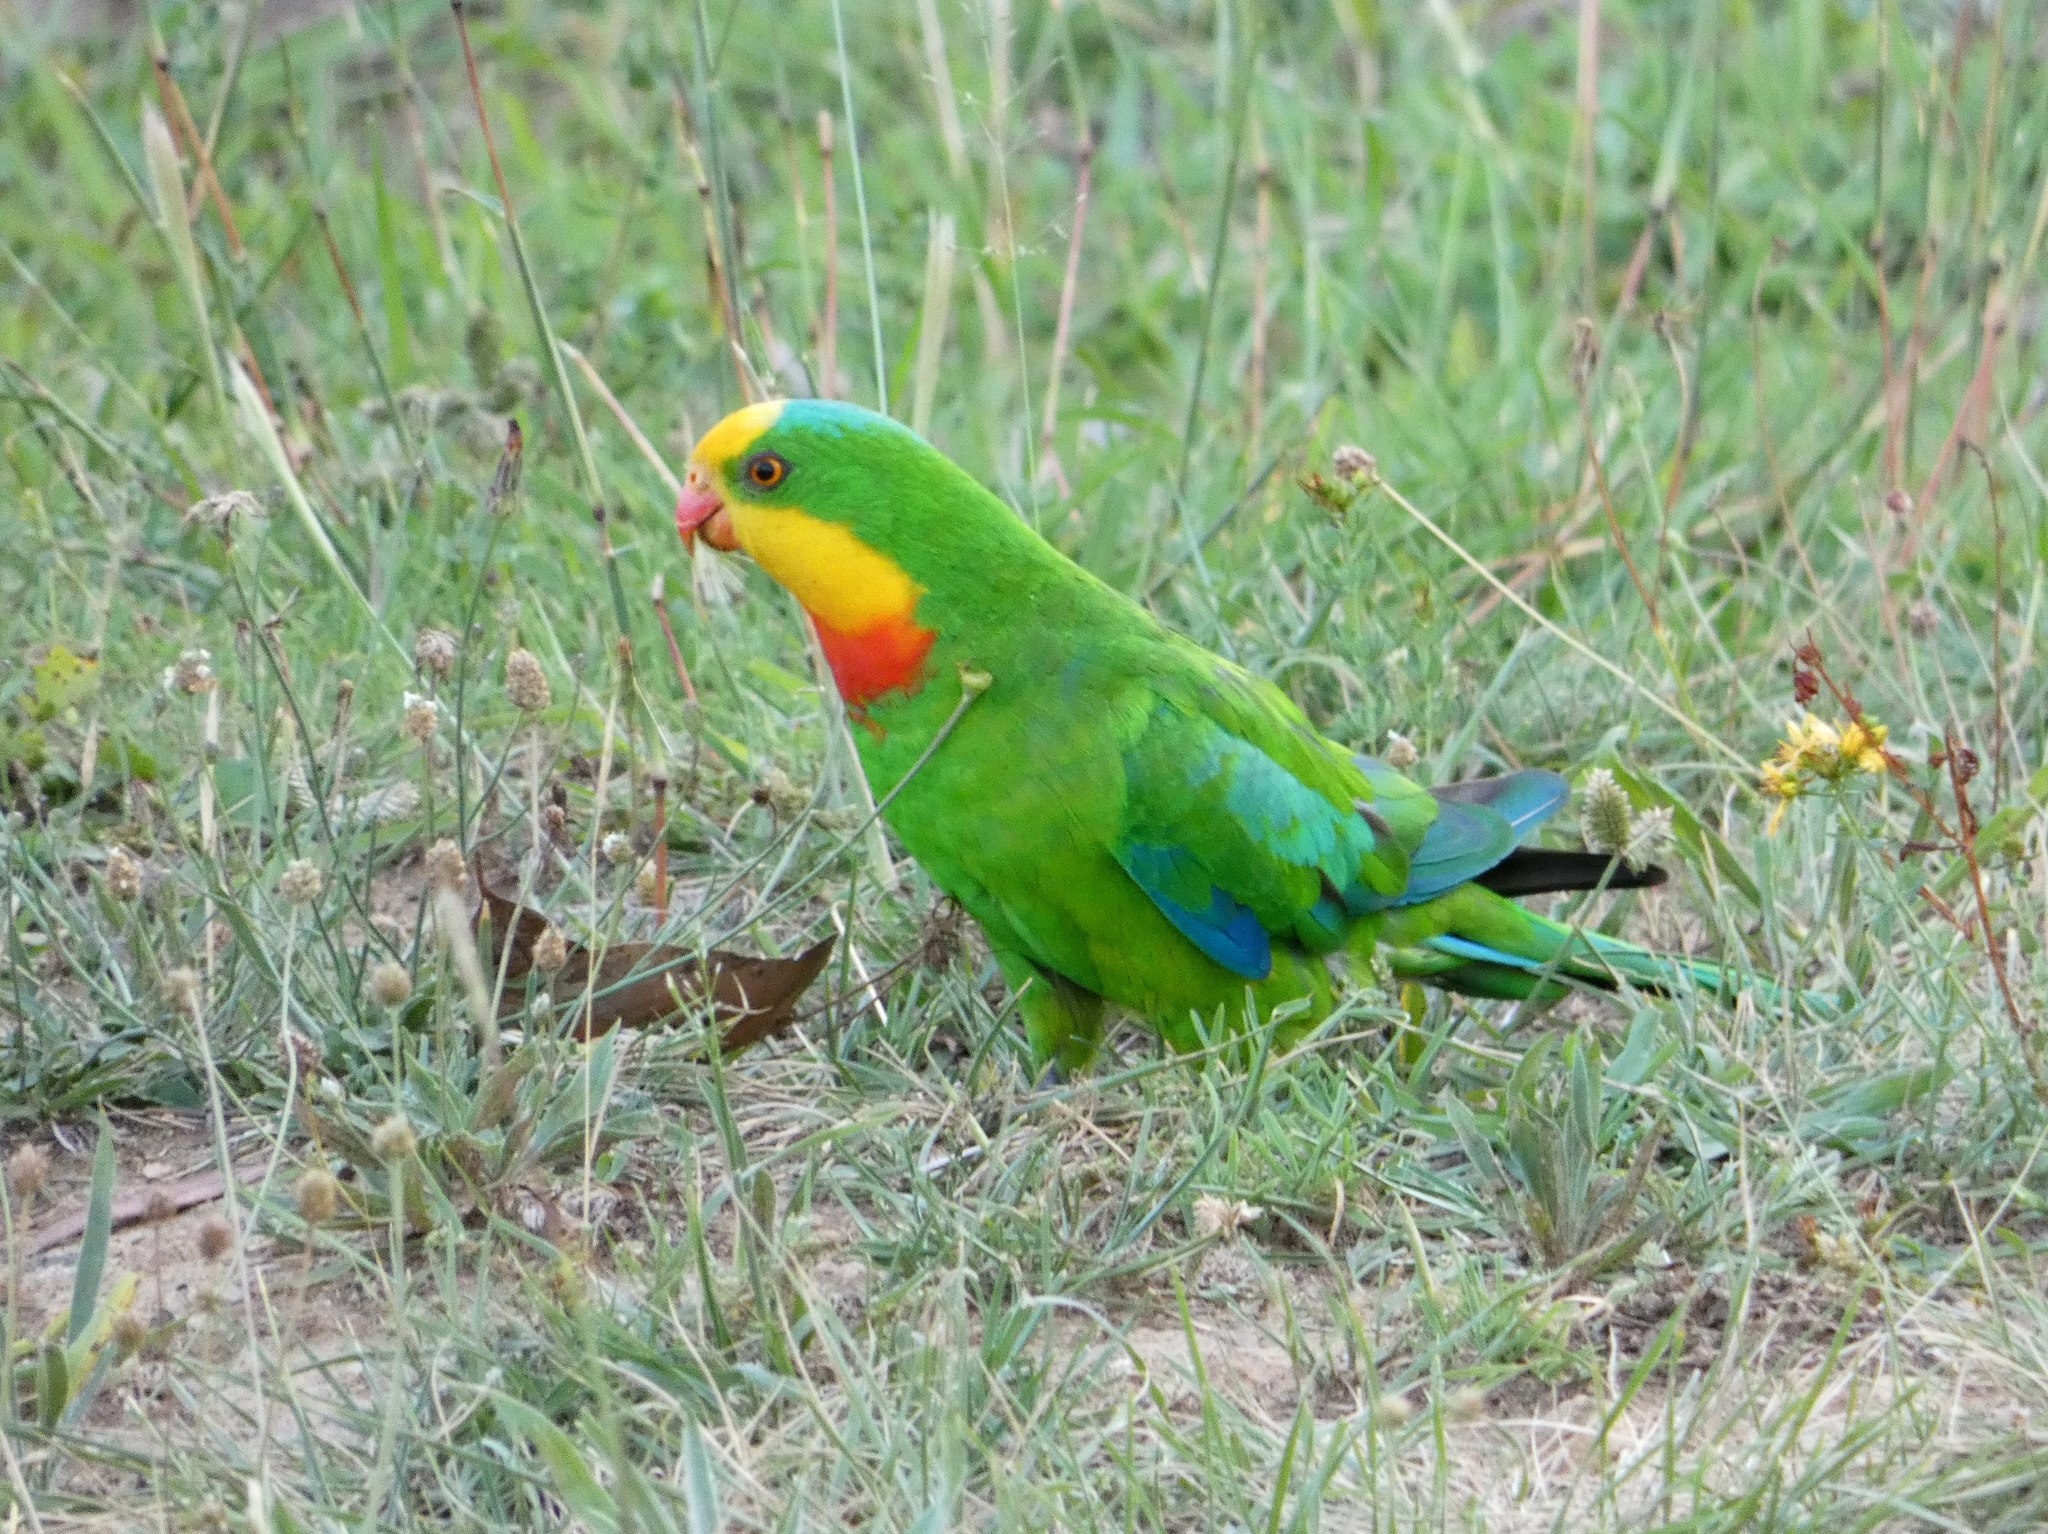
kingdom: Animalia
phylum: Chordata
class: Aves
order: Psittaciformes
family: Psittacidae
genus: Polytelis
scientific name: Polytelis swainsonii
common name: Superb parrot
